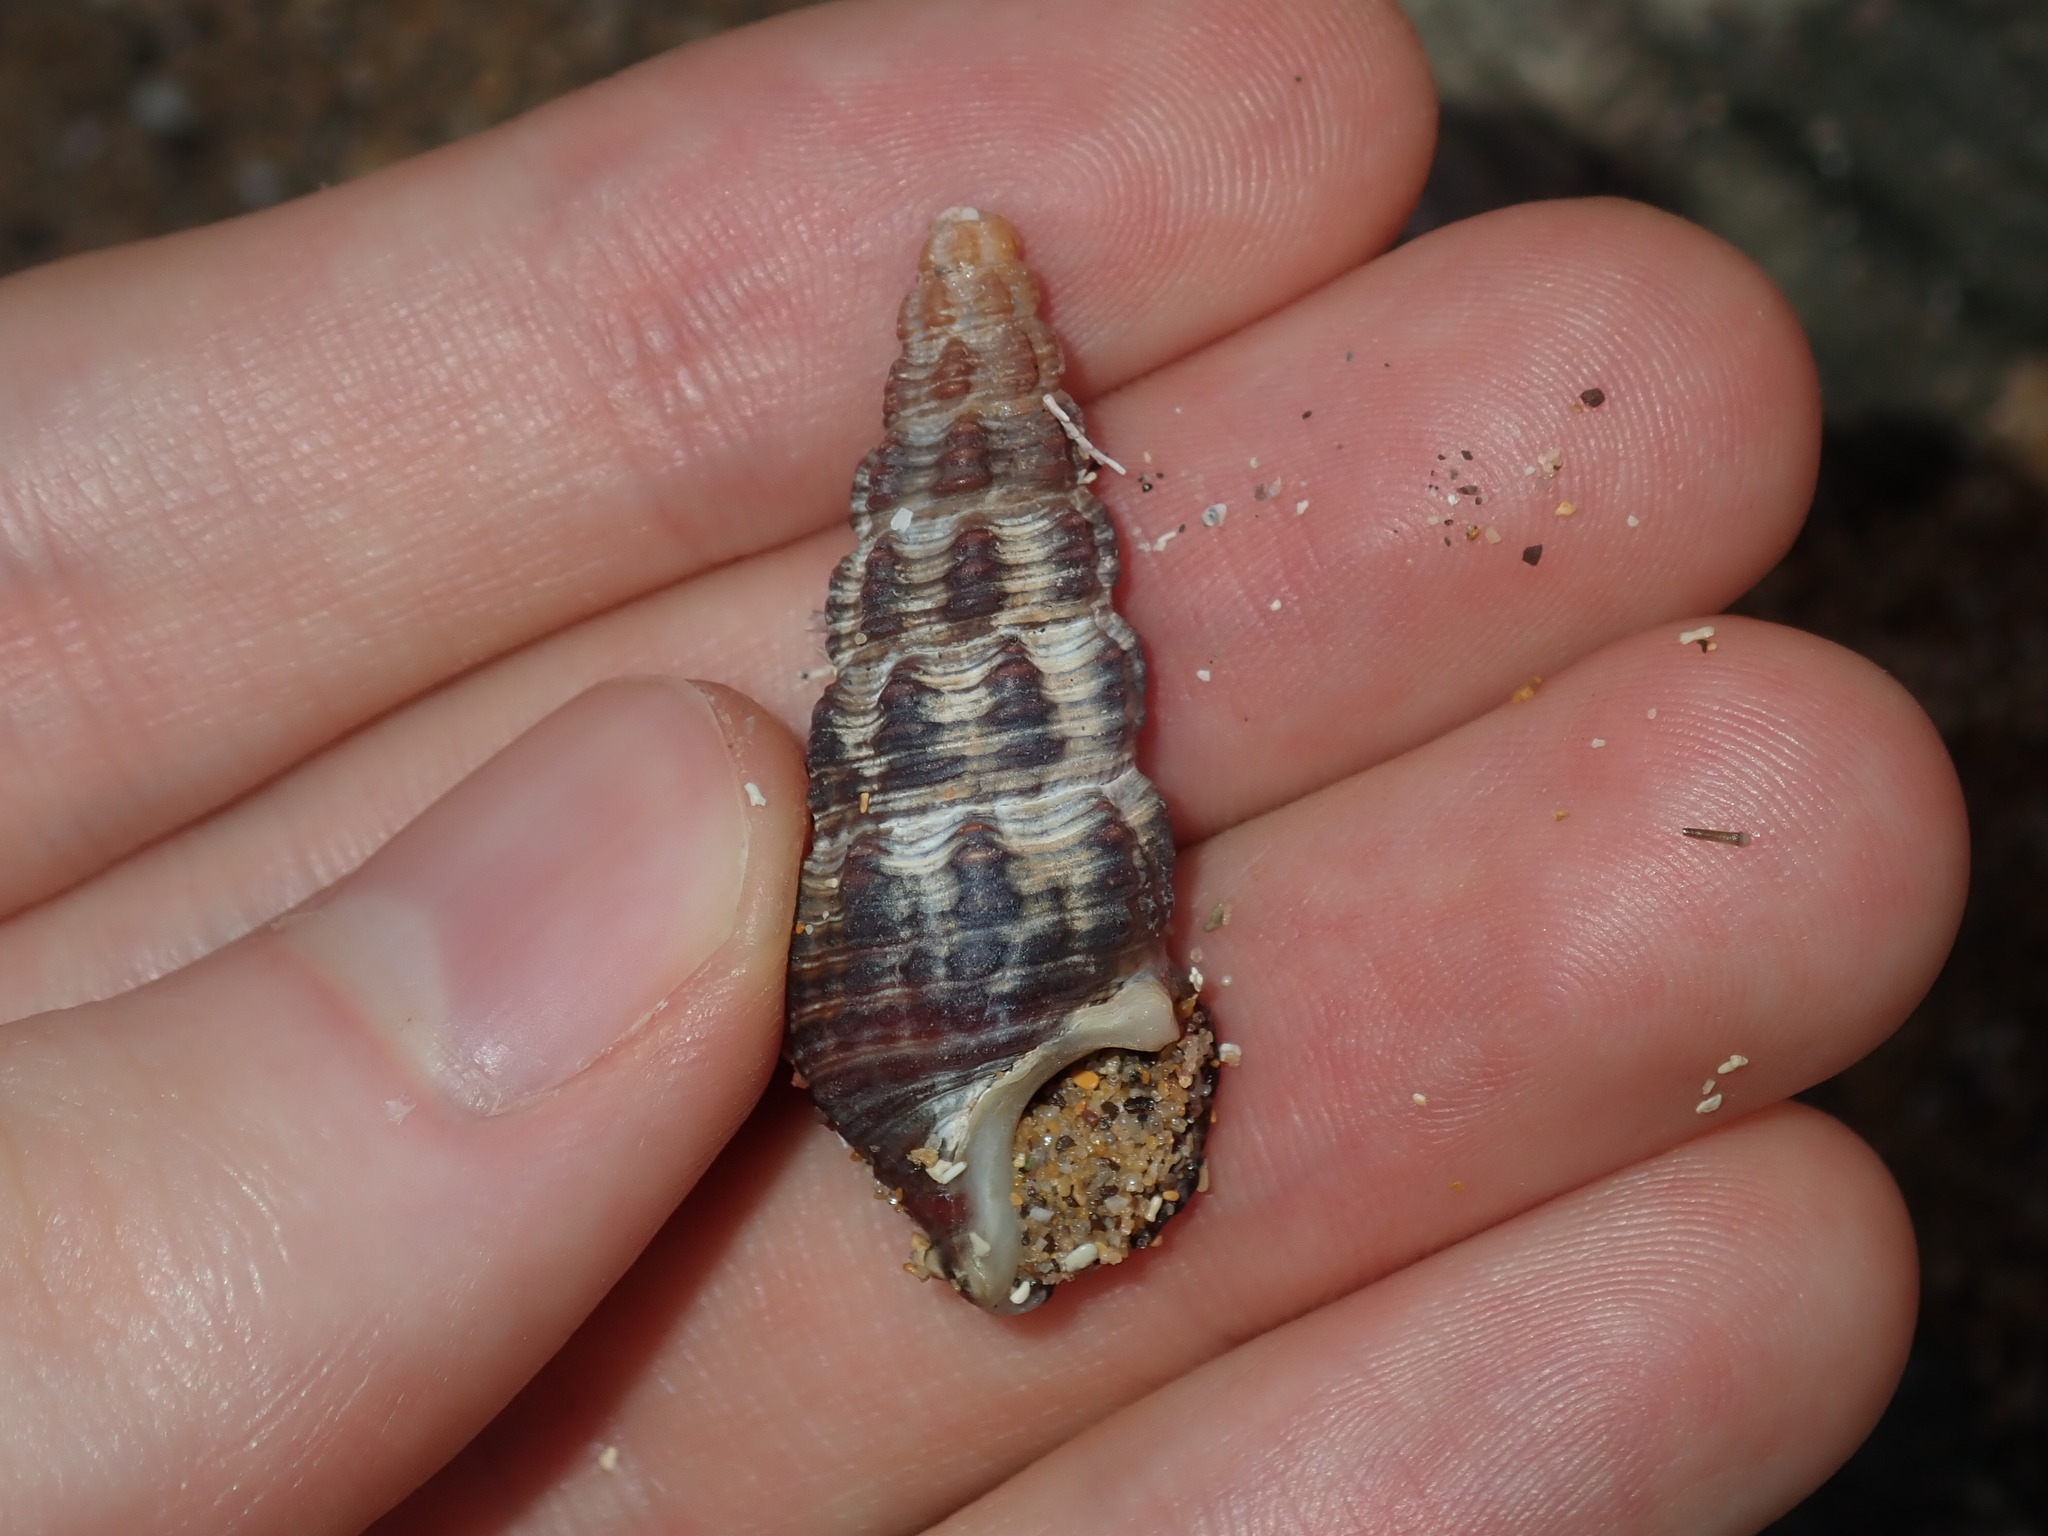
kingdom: Animalia
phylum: Mollusca
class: Gastropoda
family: Batillariidae
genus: Batillaria
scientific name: Batillaria australis
